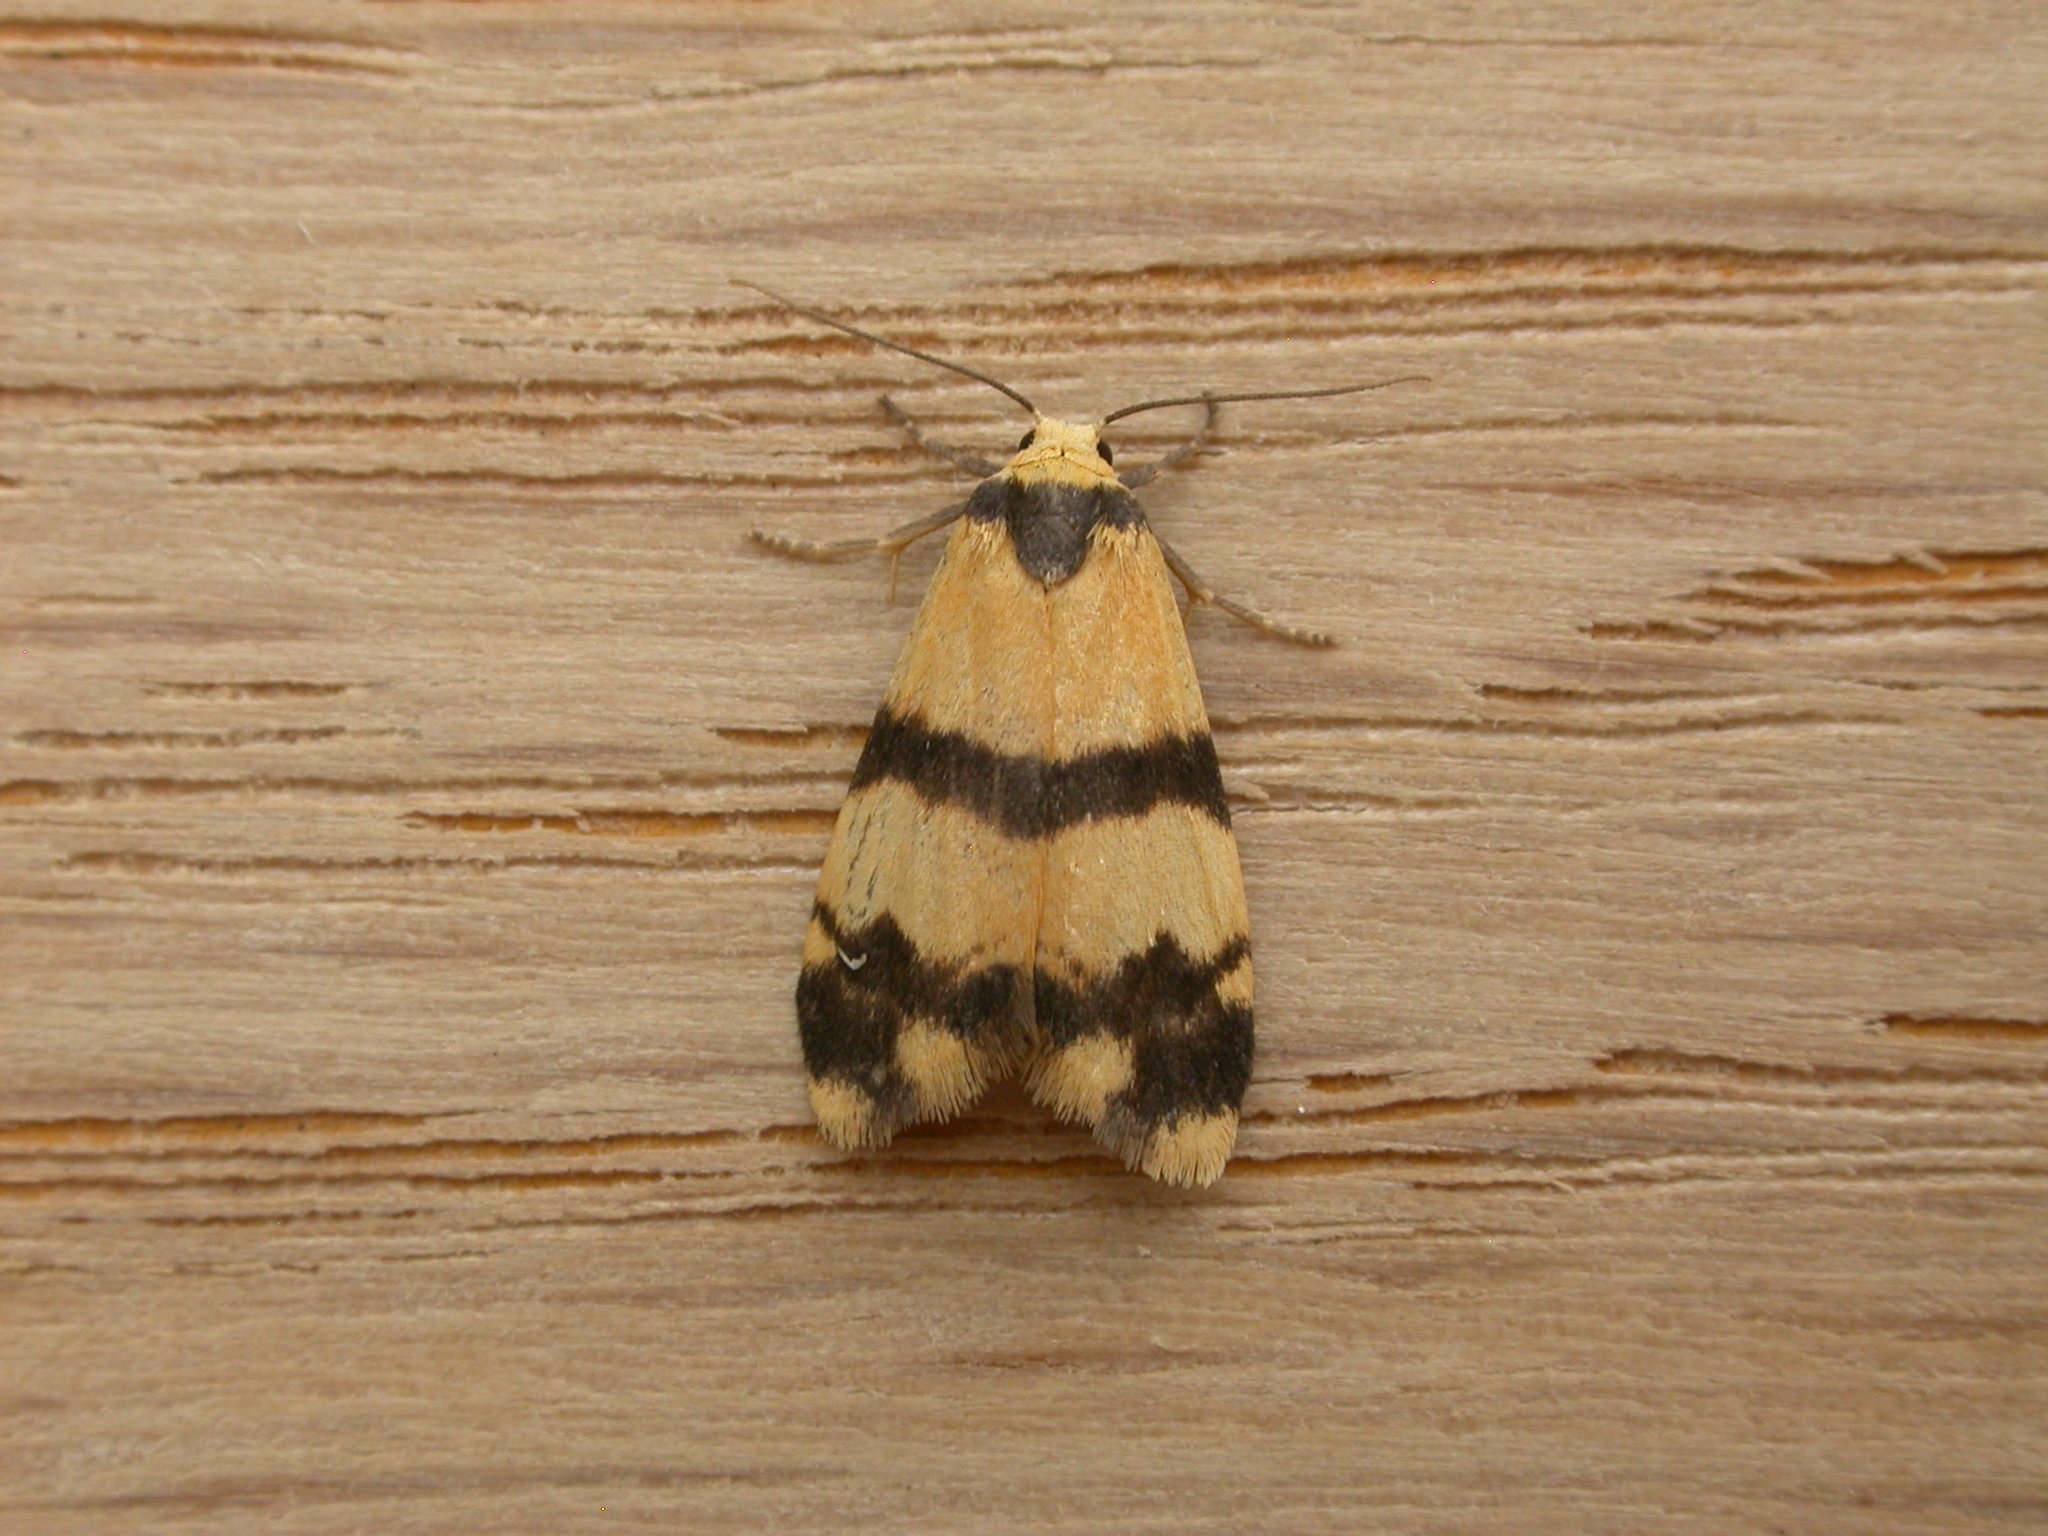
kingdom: Animalia
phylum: Arthropoda
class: Insecta
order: Lepidoptera
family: Erebidae
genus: Thallarcha
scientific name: Thallarcha chrysochares
